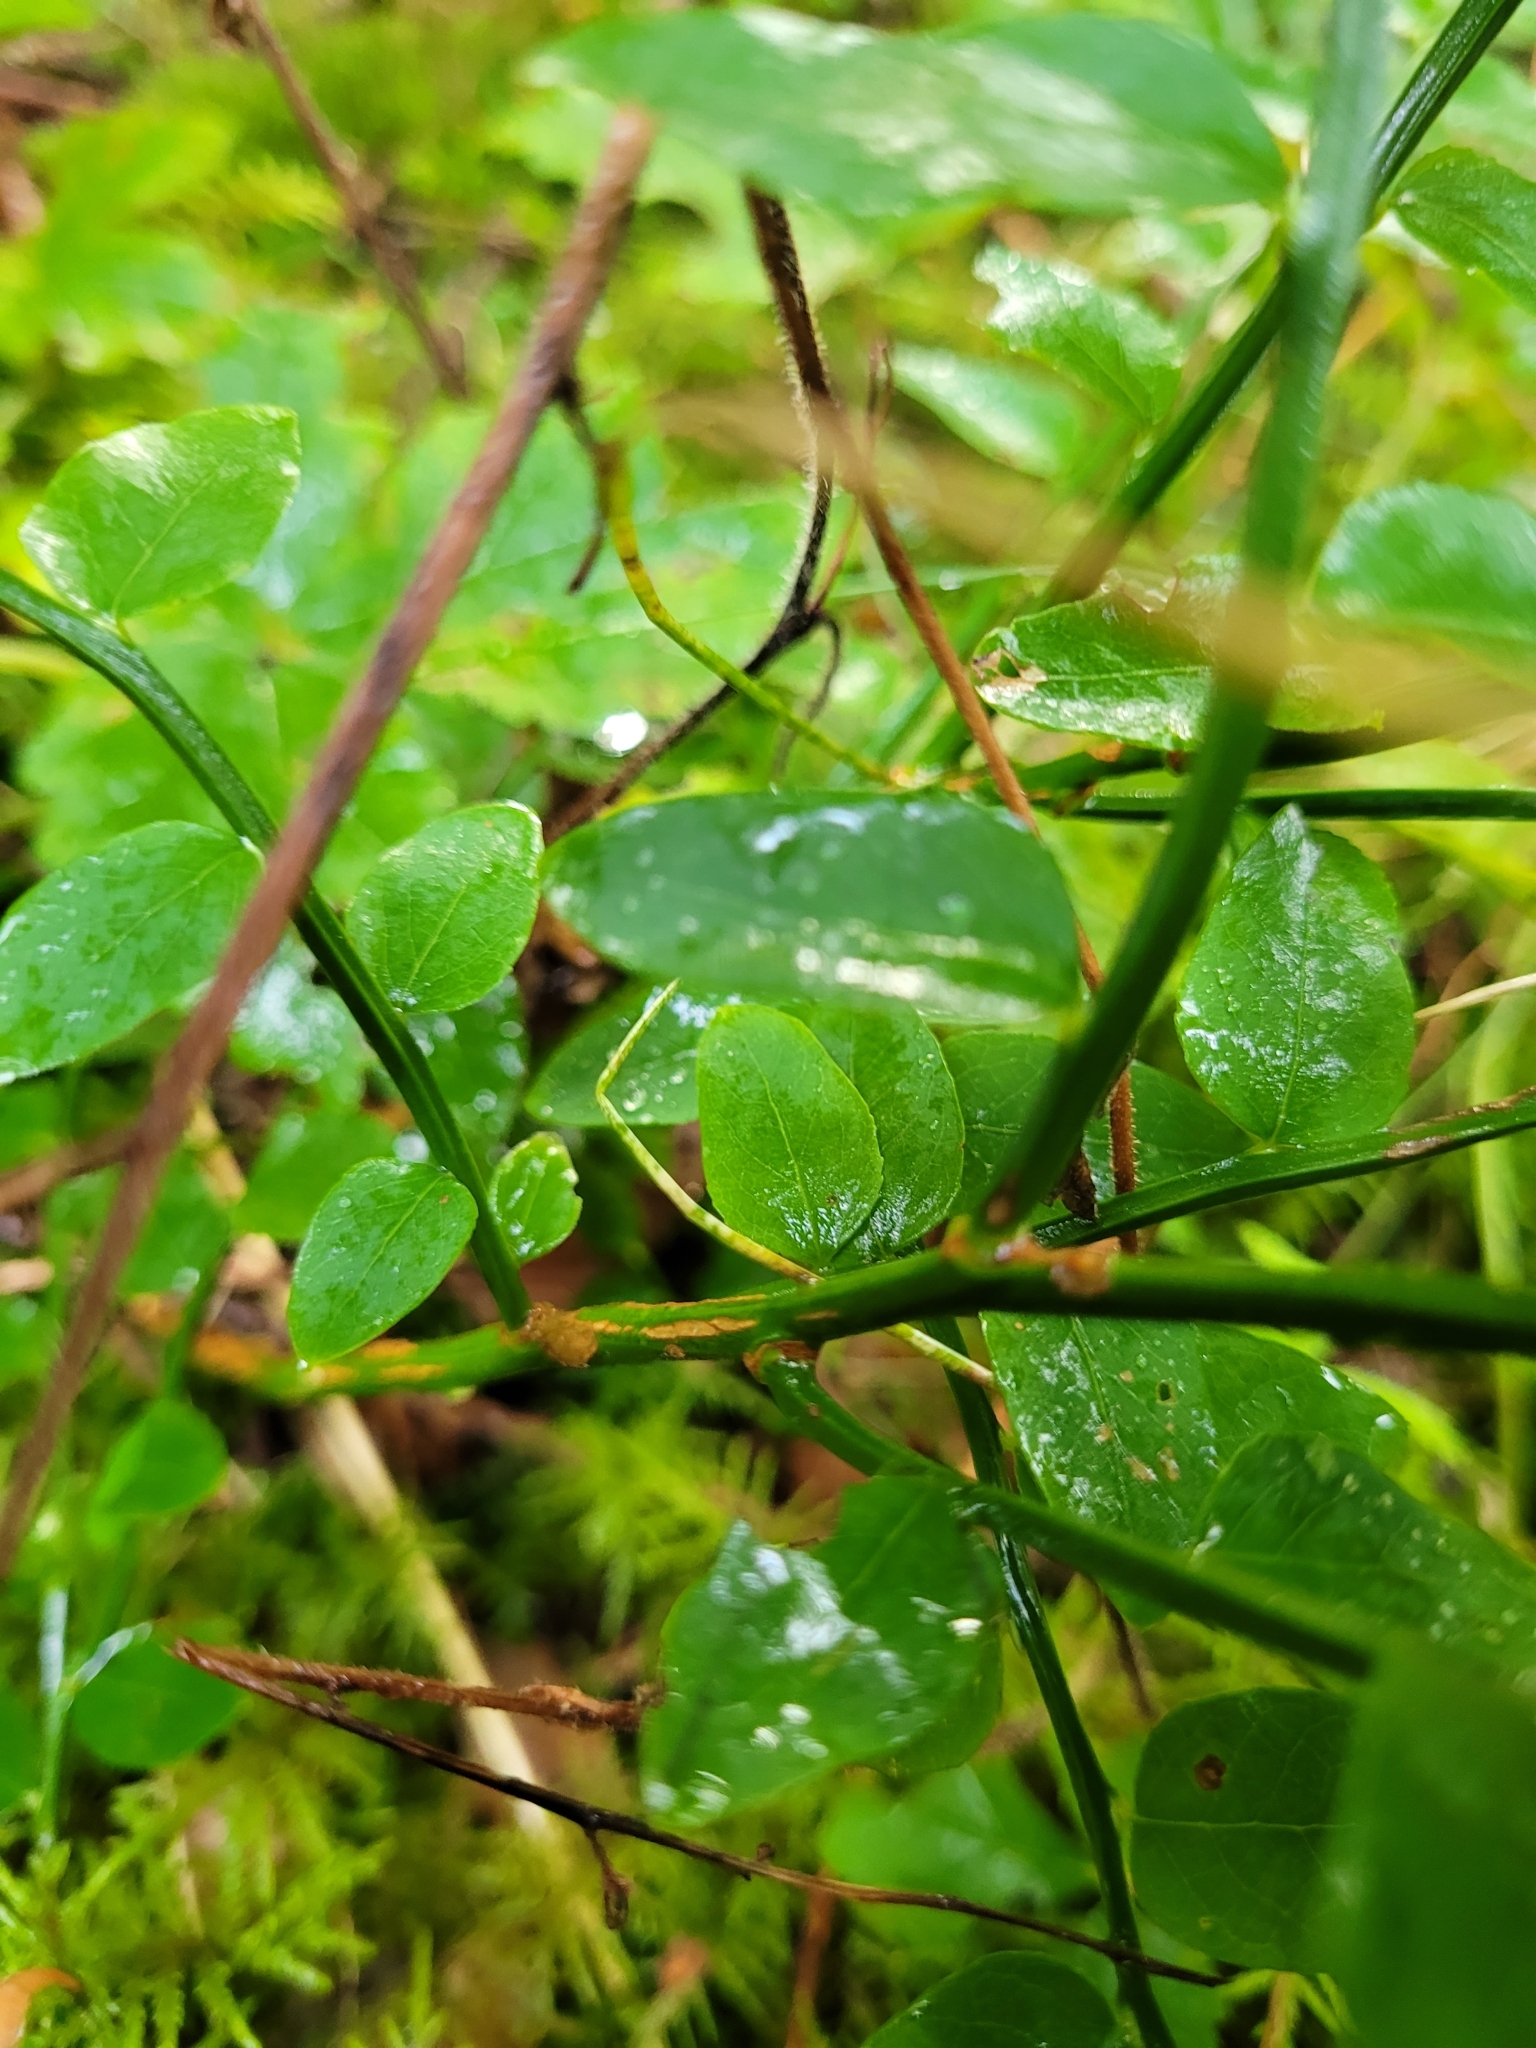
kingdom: Plantae
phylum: Tracheophyta
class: Magnoliopsida
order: Ericales
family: Ericaceae
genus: Vaccinium
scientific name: Vaccinium parvifolium
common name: Red-huckleberry
